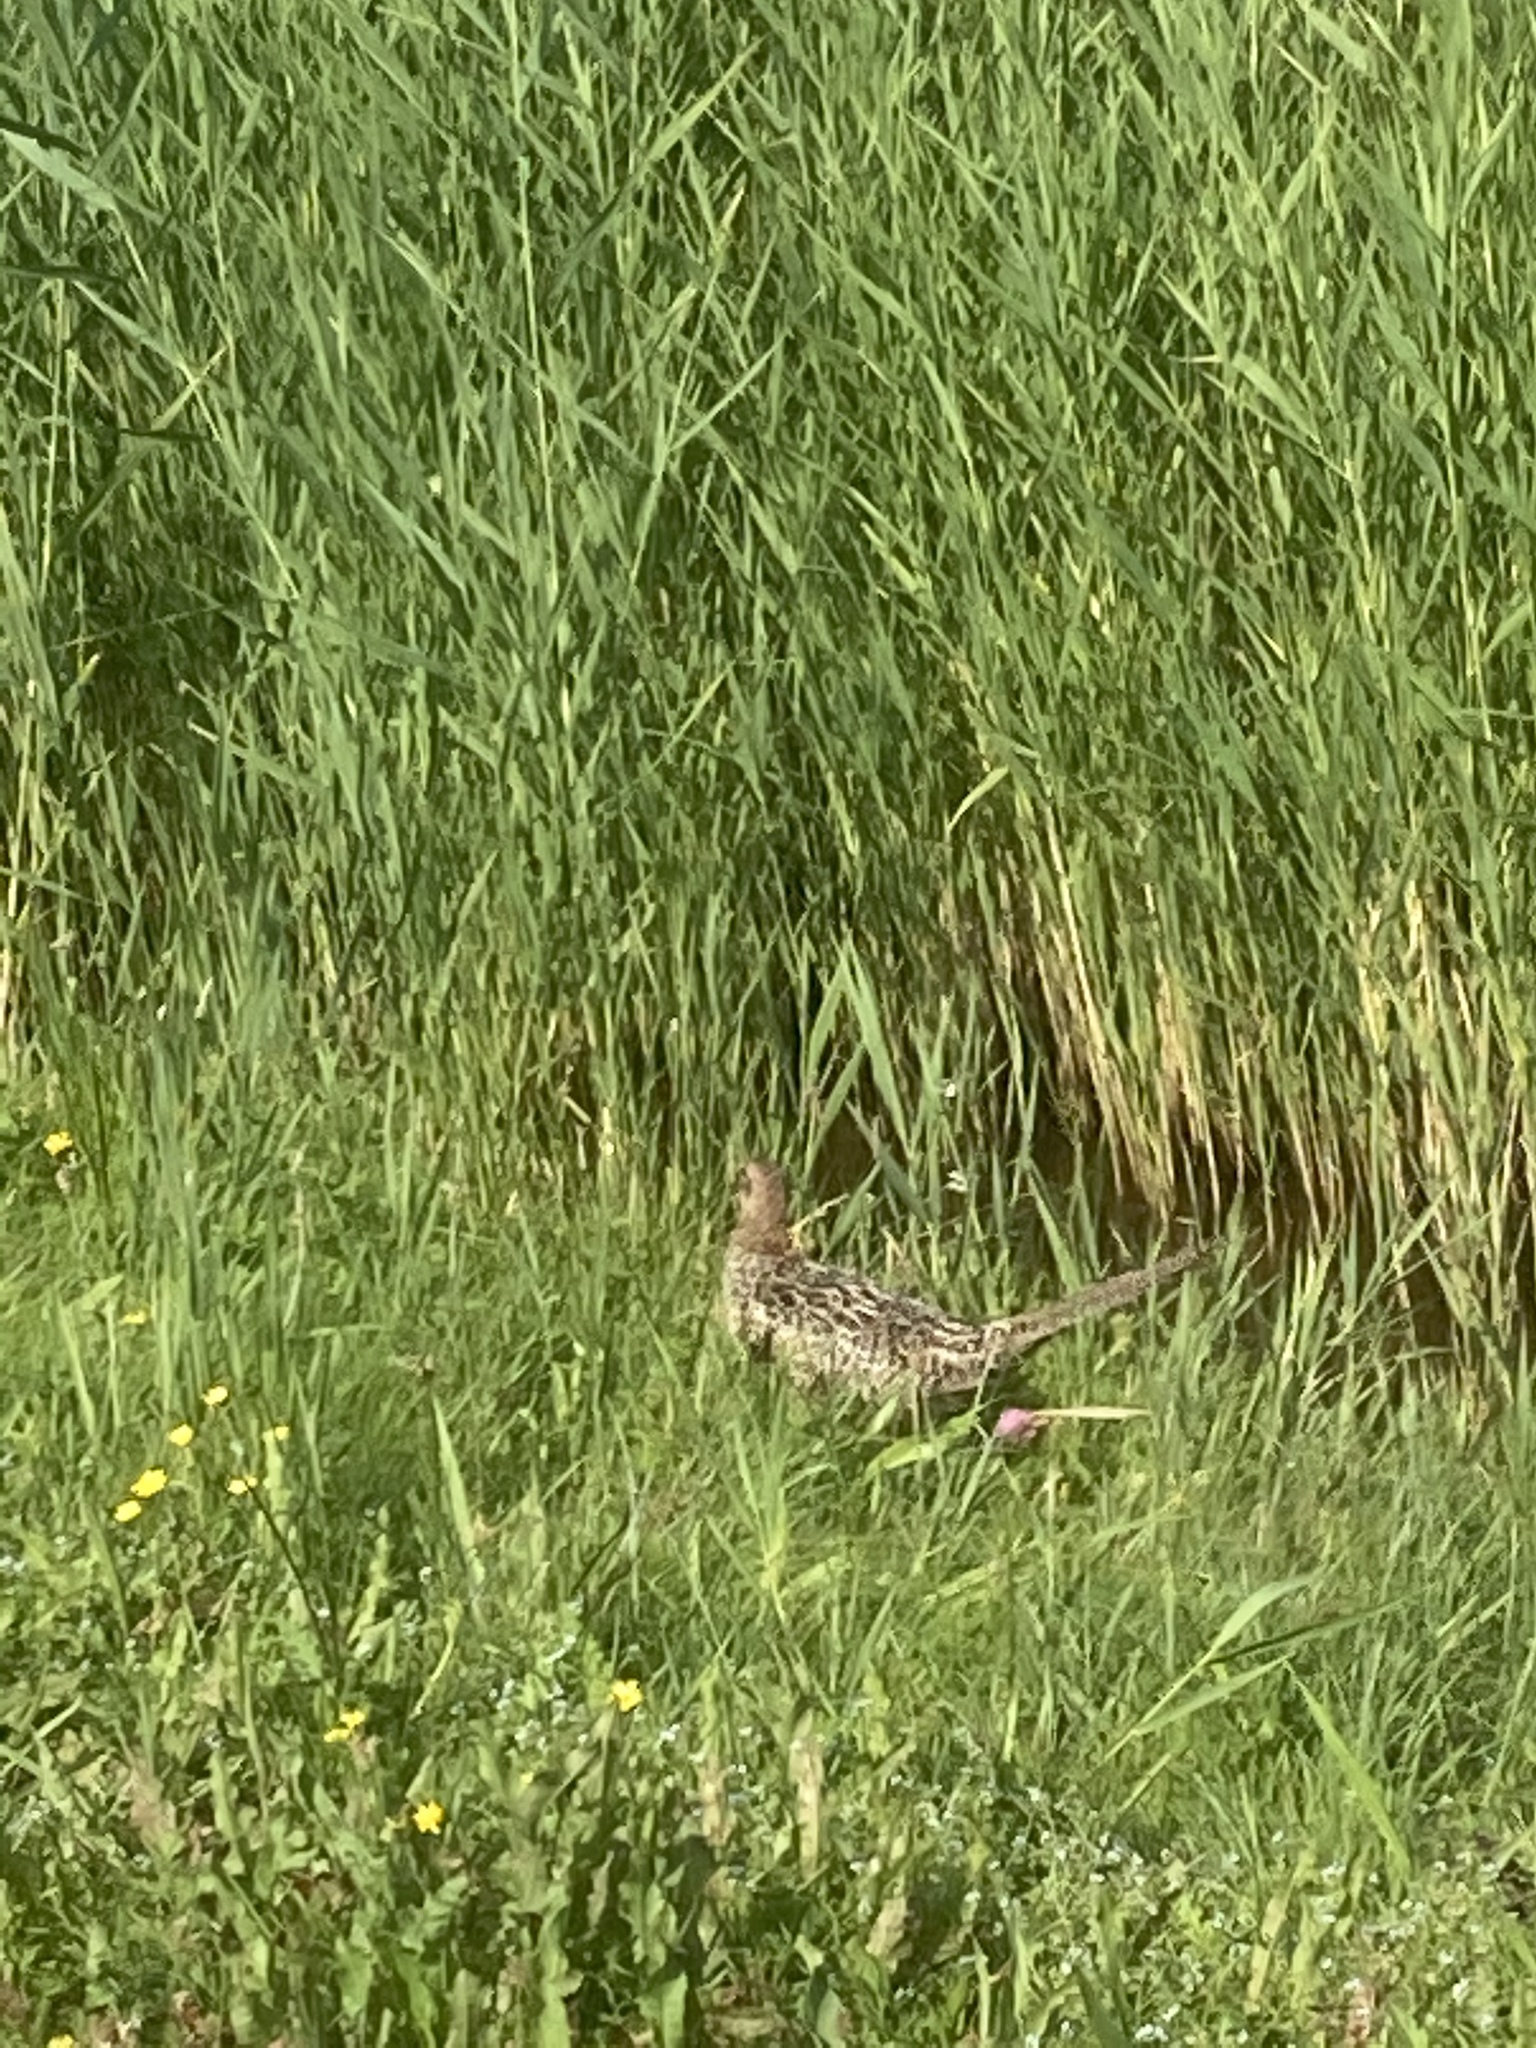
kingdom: Animalia
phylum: Chordata
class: Aves
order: Galliformes
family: Phasianidae
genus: Phasianus
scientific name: Phasianus colchicus
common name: Common pheasant
